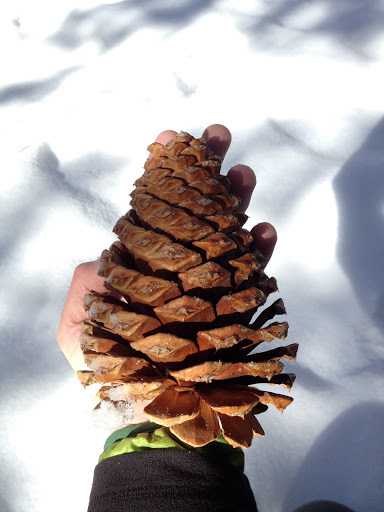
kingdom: Plantae
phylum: Tracheophyta
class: Pinopsida
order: Pinales
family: Pinaceae
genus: Pinus
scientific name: Pinus jeffreyi
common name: Jeffrey pine
